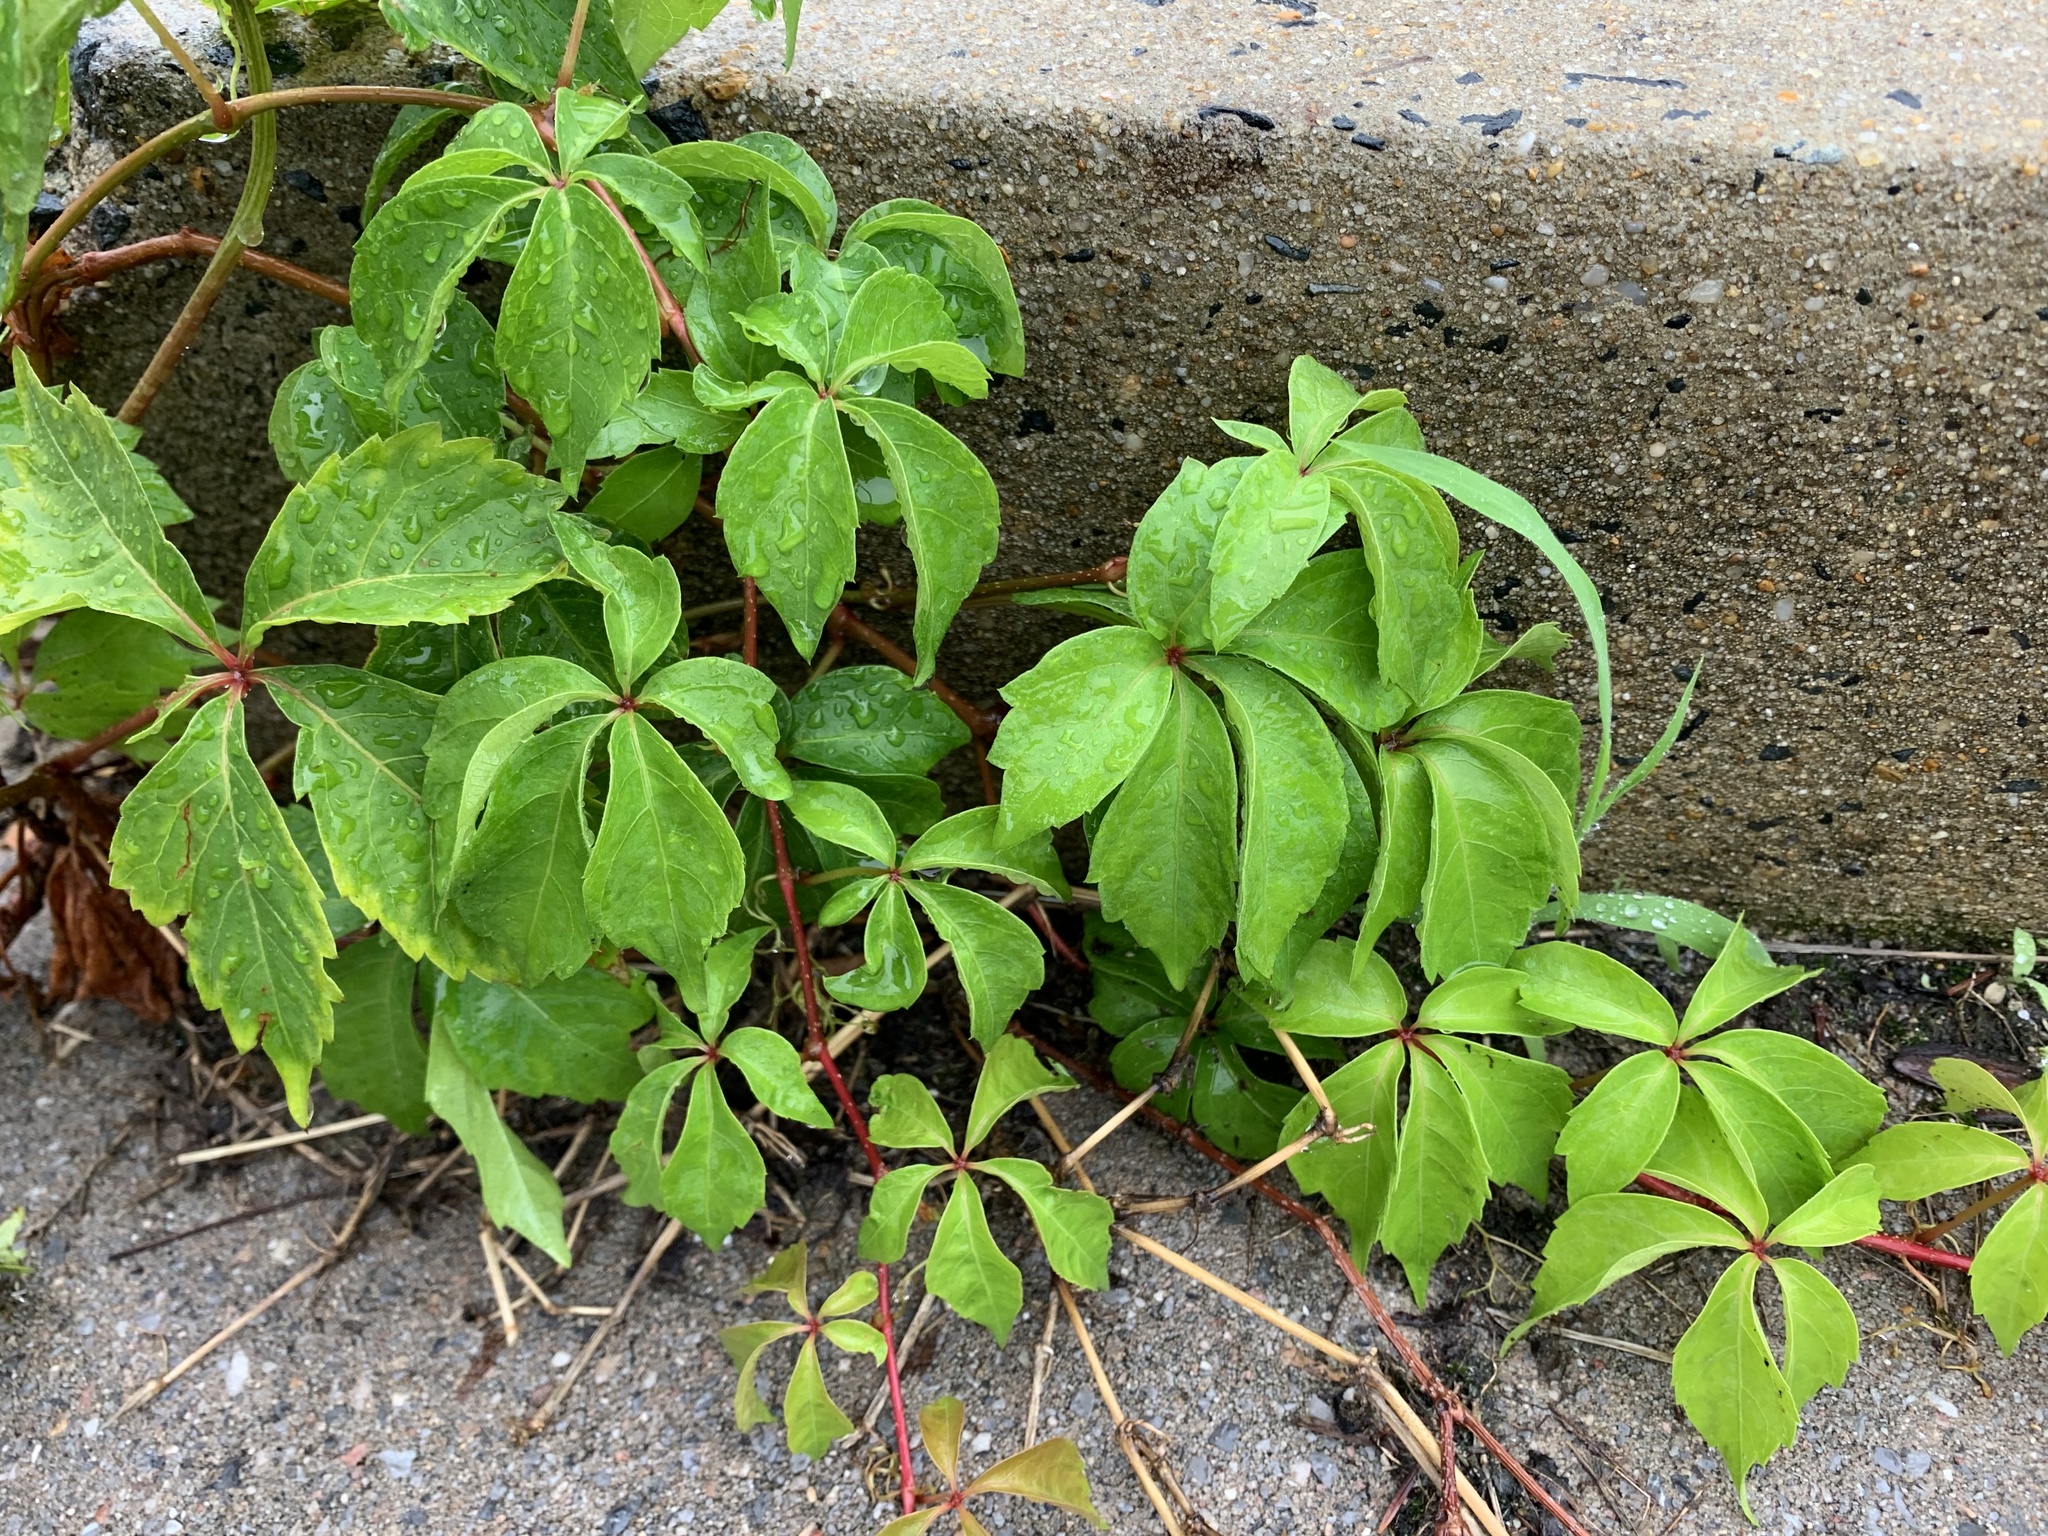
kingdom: Plantae
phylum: Tracheophyta
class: Magnoliopsida
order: Vitales
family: Vitaceae
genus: Parthenocissus
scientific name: Parthenocissus quinquefolia
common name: Virginia-creeper
